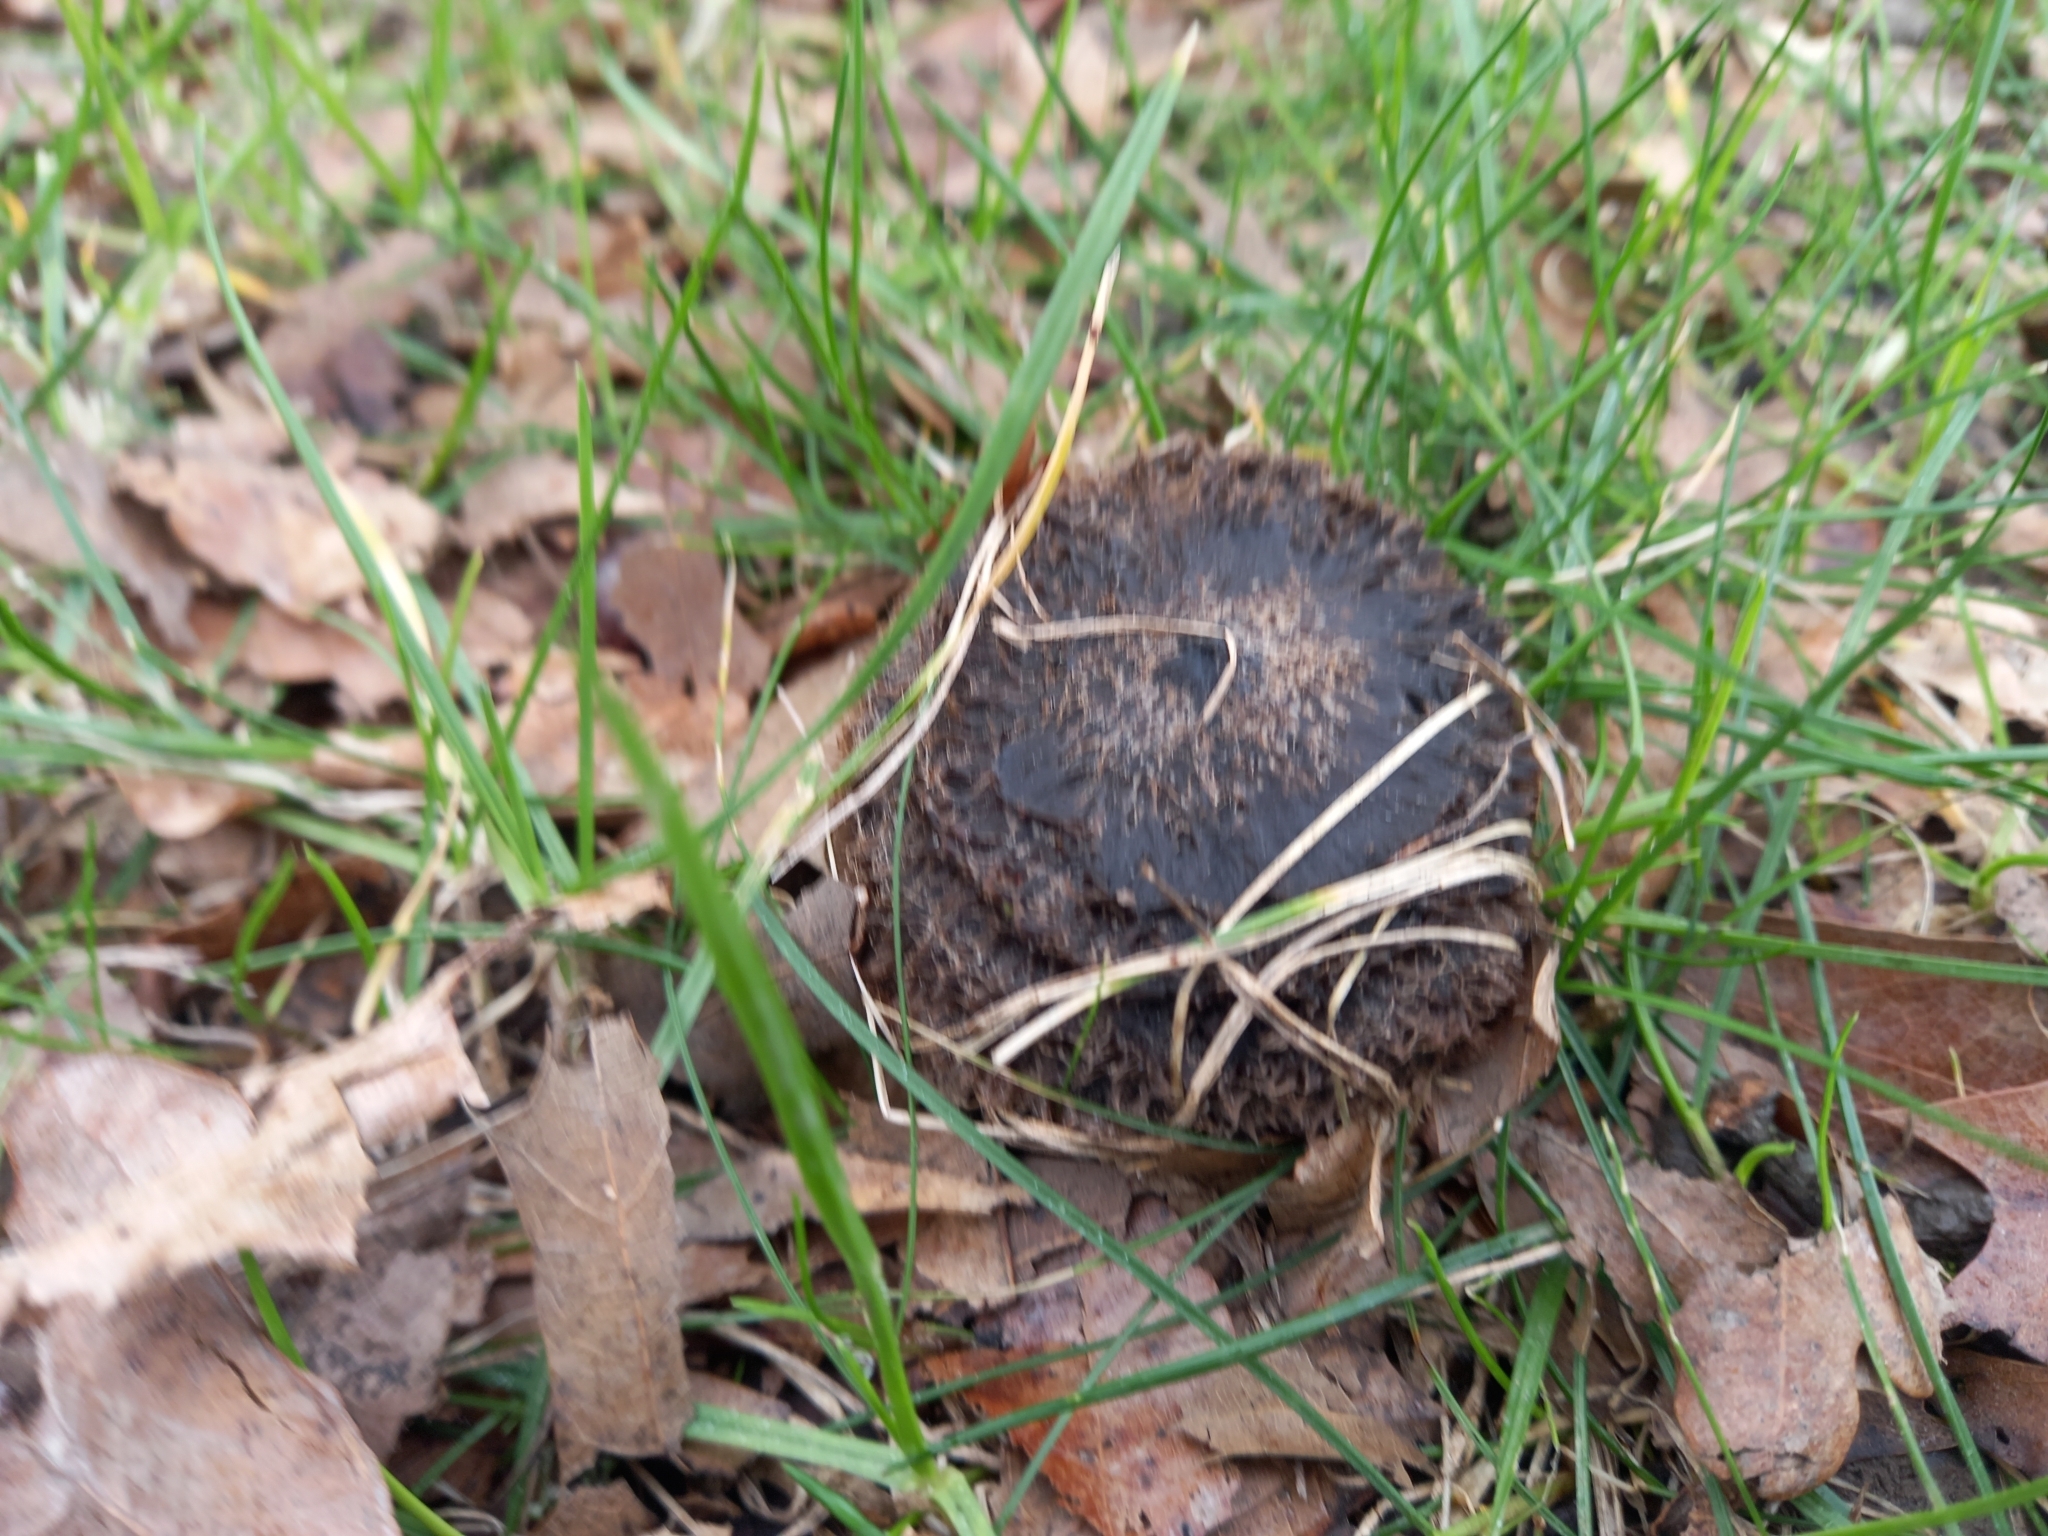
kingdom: Fungi
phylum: Basidiomycota
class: Agaricomycetes
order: Agaricales
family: Tricholomataceae
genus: Collybia
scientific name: Collybia
